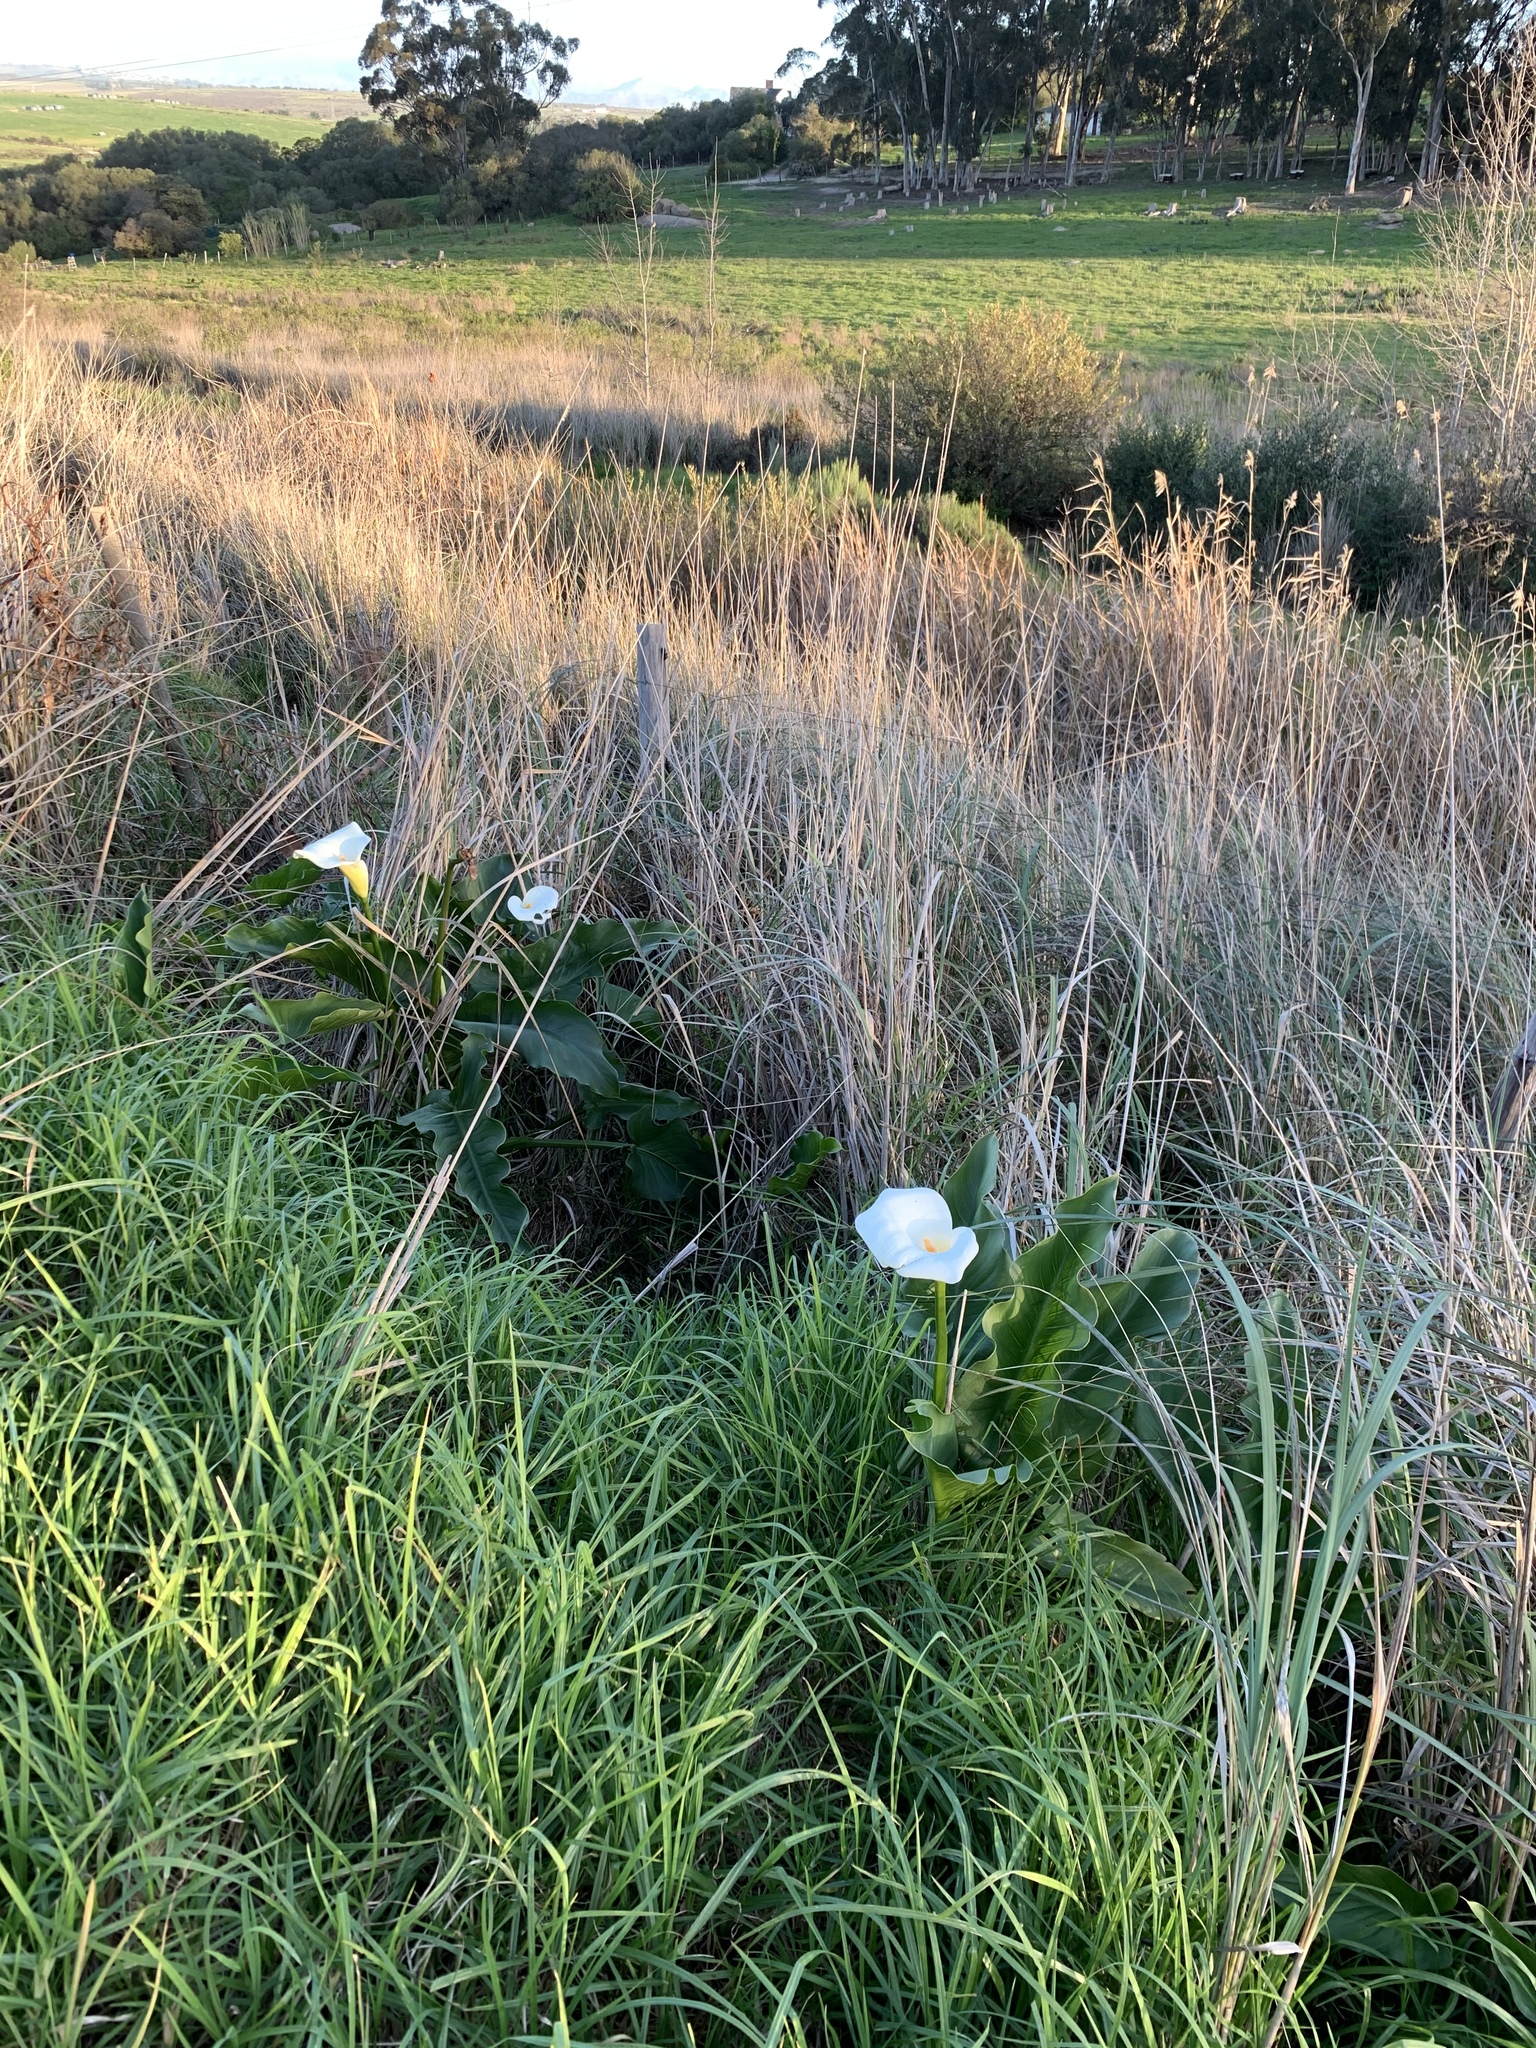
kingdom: Plantae
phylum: Tracheophyta
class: Liliopsida
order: Alismatales
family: Araceae
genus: Zantedeschia
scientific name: Zantedeschia aethiopica
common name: Altar-lily
